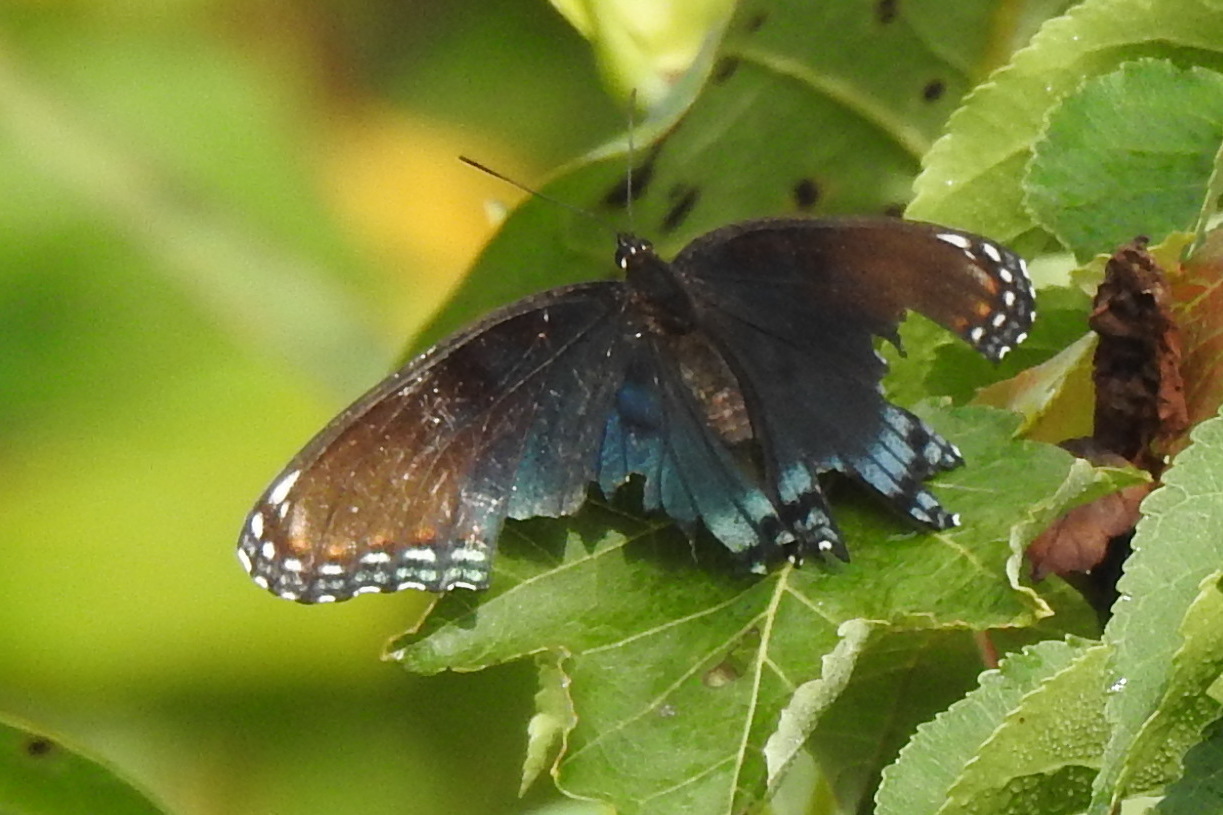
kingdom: Animalia
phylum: Arthropoda
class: Insecta
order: Lepidoptera
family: Nymphalidae
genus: Limenitis
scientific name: Limenitis astyanax
